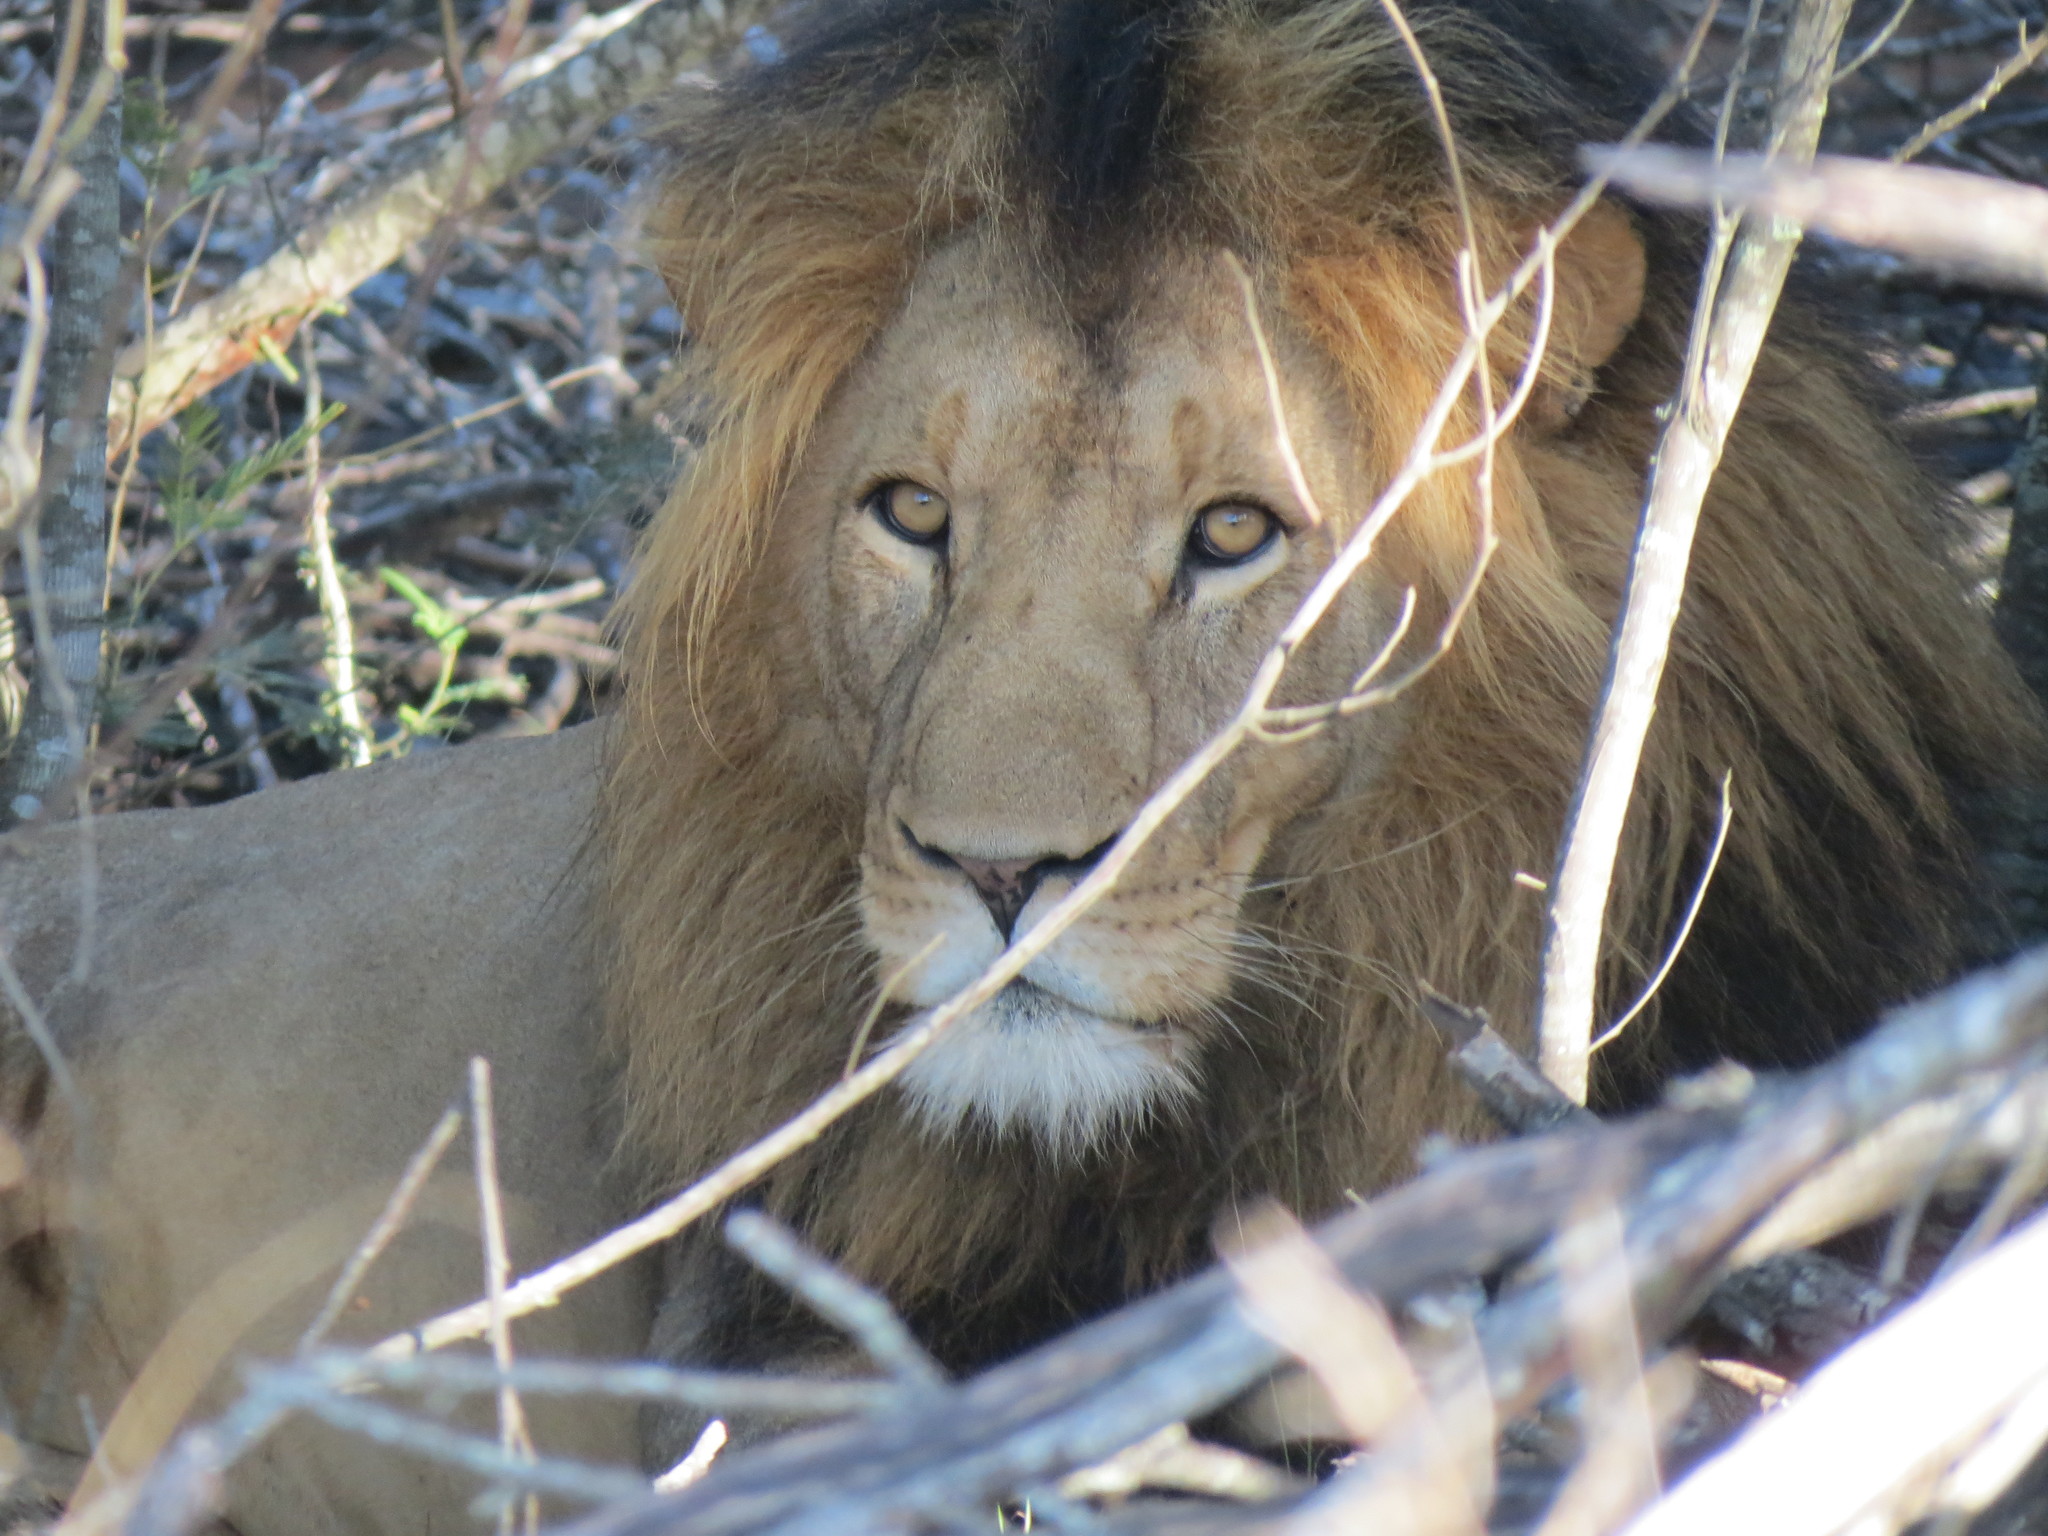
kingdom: Animalia
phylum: Chordata
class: Mammalia
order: Carnivora
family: Felidae
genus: Panthera
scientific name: Panthera leo
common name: Lion
